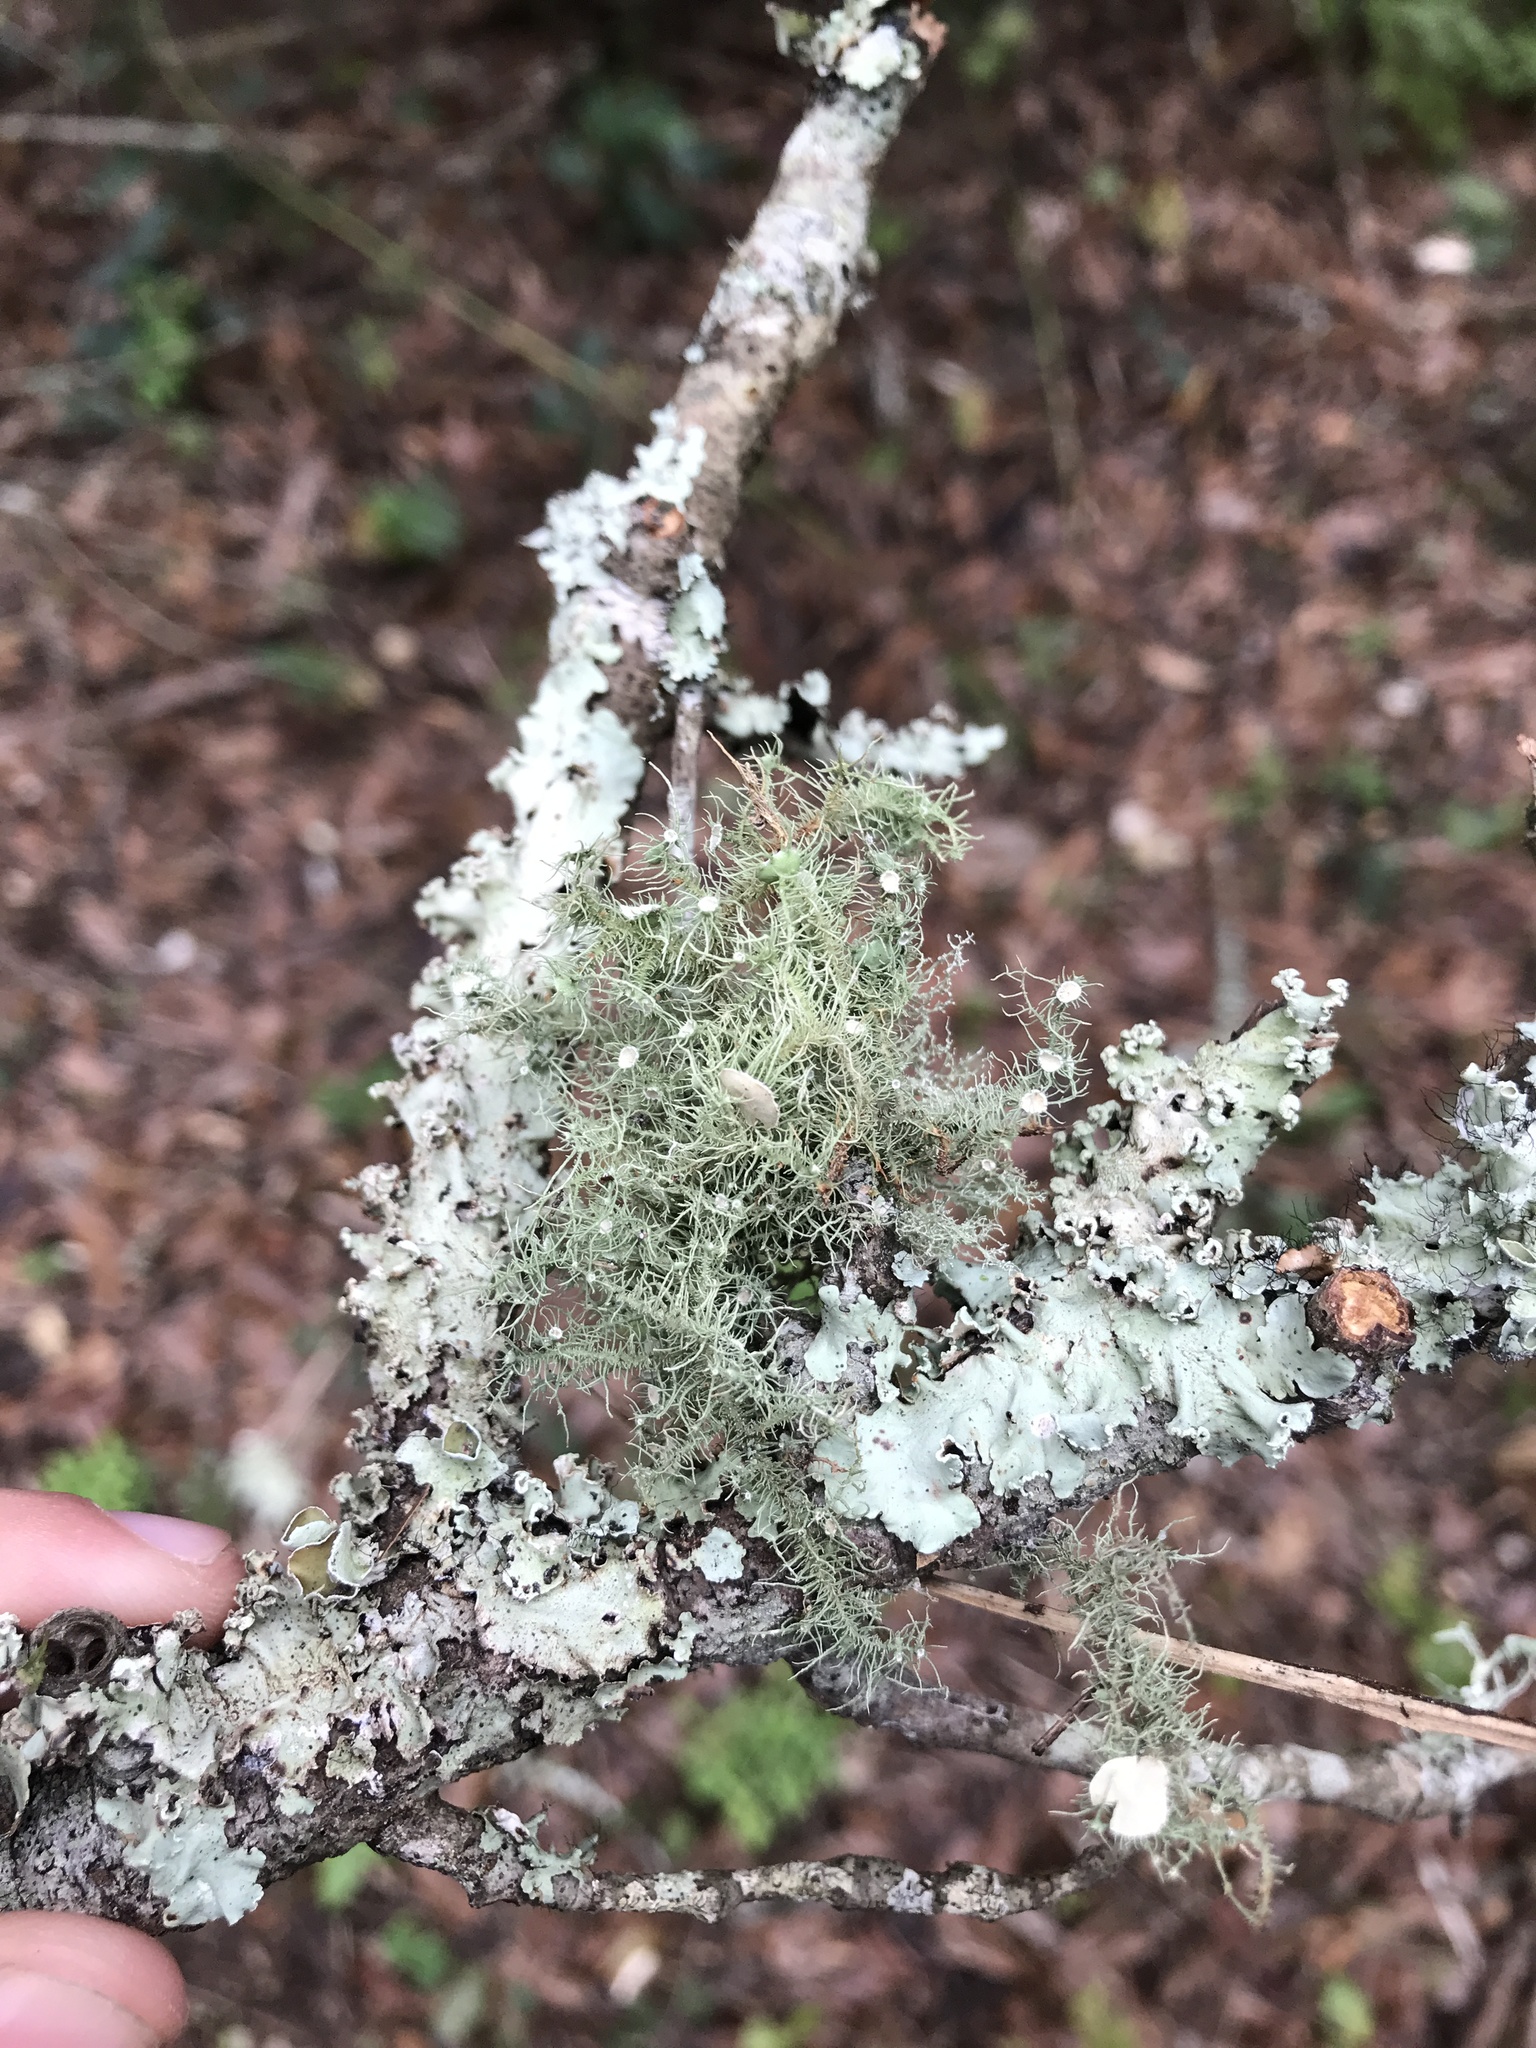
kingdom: Fungi
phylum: Ascomycota
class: Lecanoromycetes
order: Lecanorales
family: Parmeliaceae
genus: Usnea
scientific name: Usnea strigosa
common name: Bushy beard lichen
